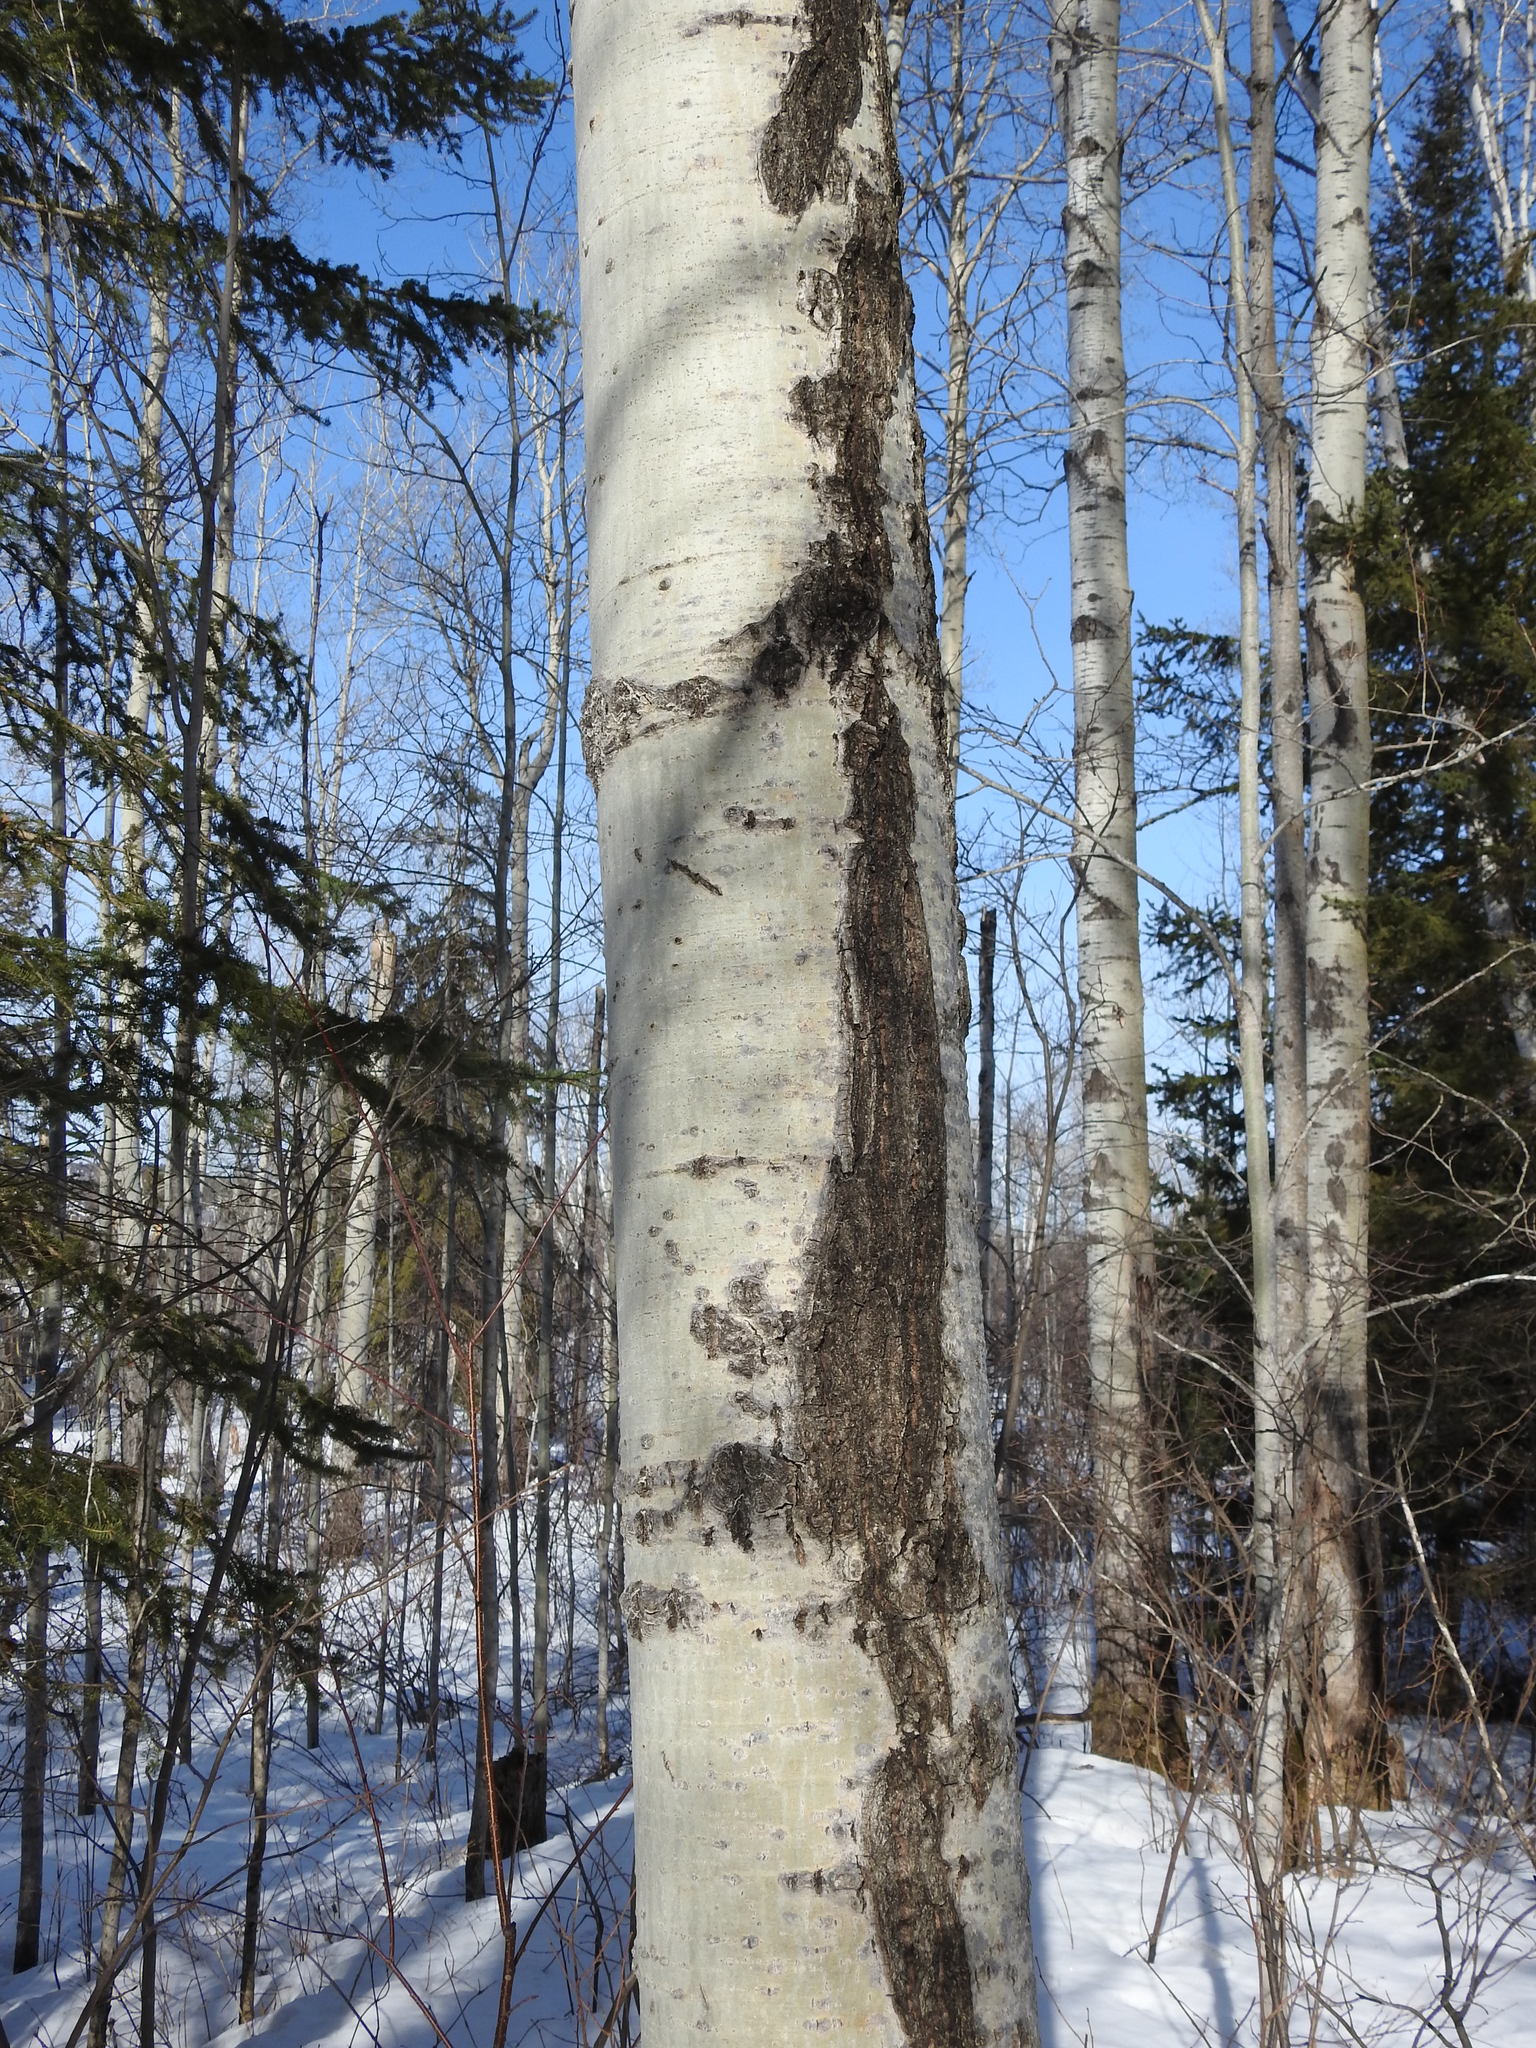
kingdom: Plantae
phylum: Tracheophyta
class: Magnoliopsida
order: Malpighiales
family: Salicaceae
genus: Populus
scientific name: Populus tremuloides
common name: Quaking aspen
